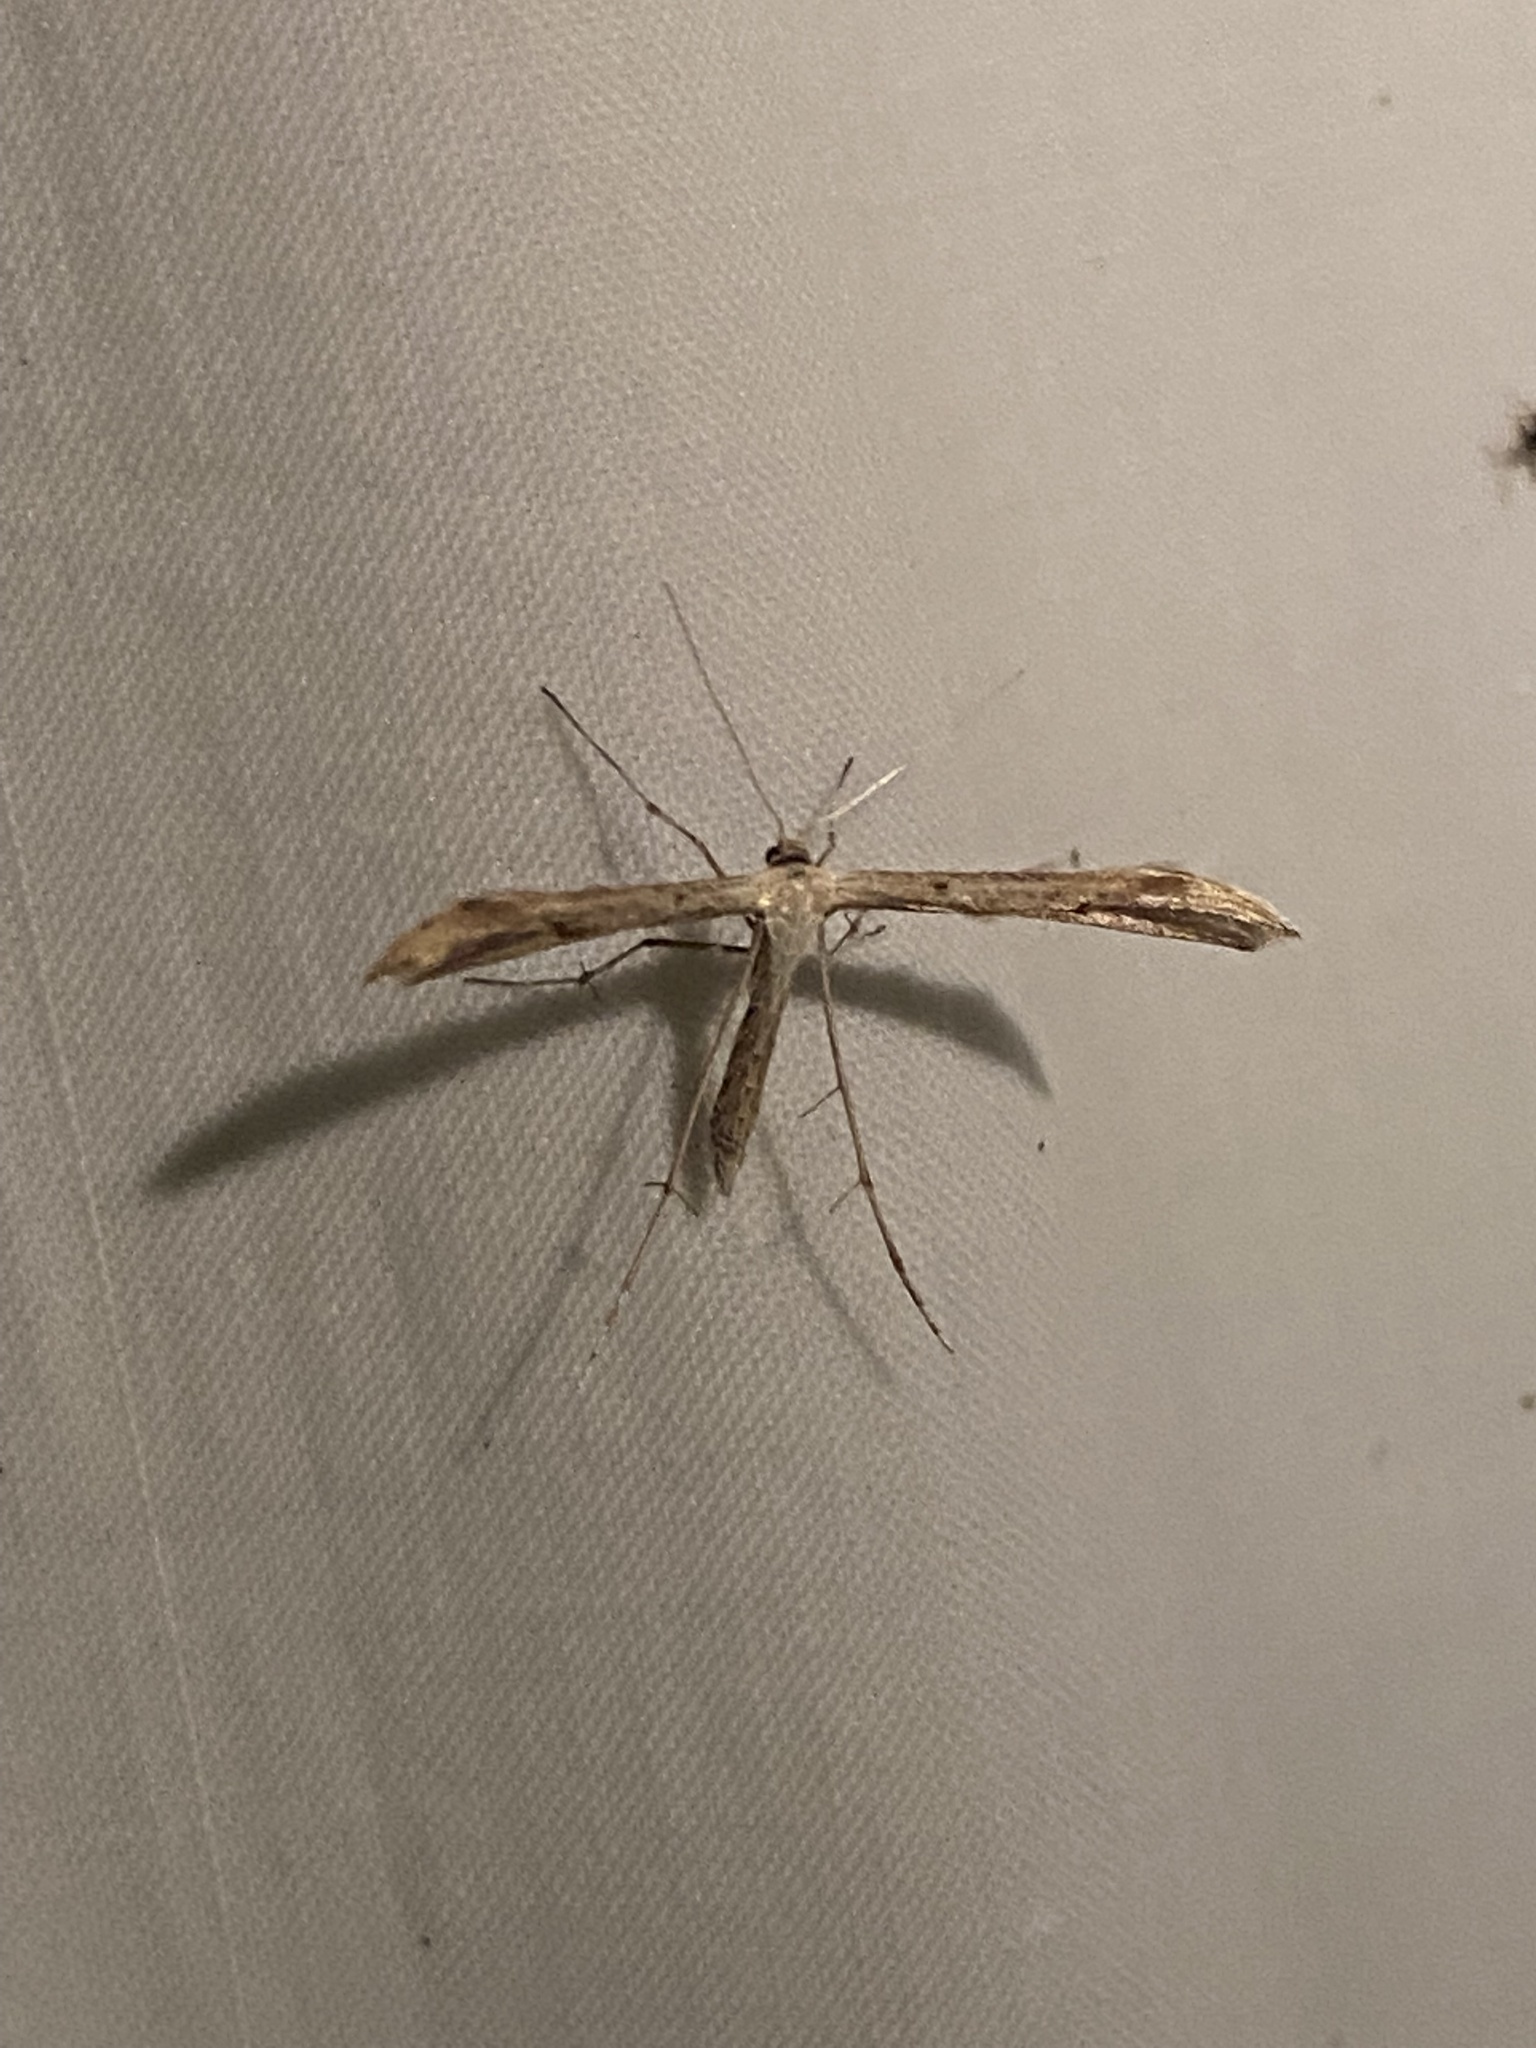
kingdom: Animalia
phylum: Arthropoda
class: Insecta
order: Lepidoptera
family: Pterophoridae
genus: Emmelina
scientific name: Emmelina monodactyla
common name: Common plume
